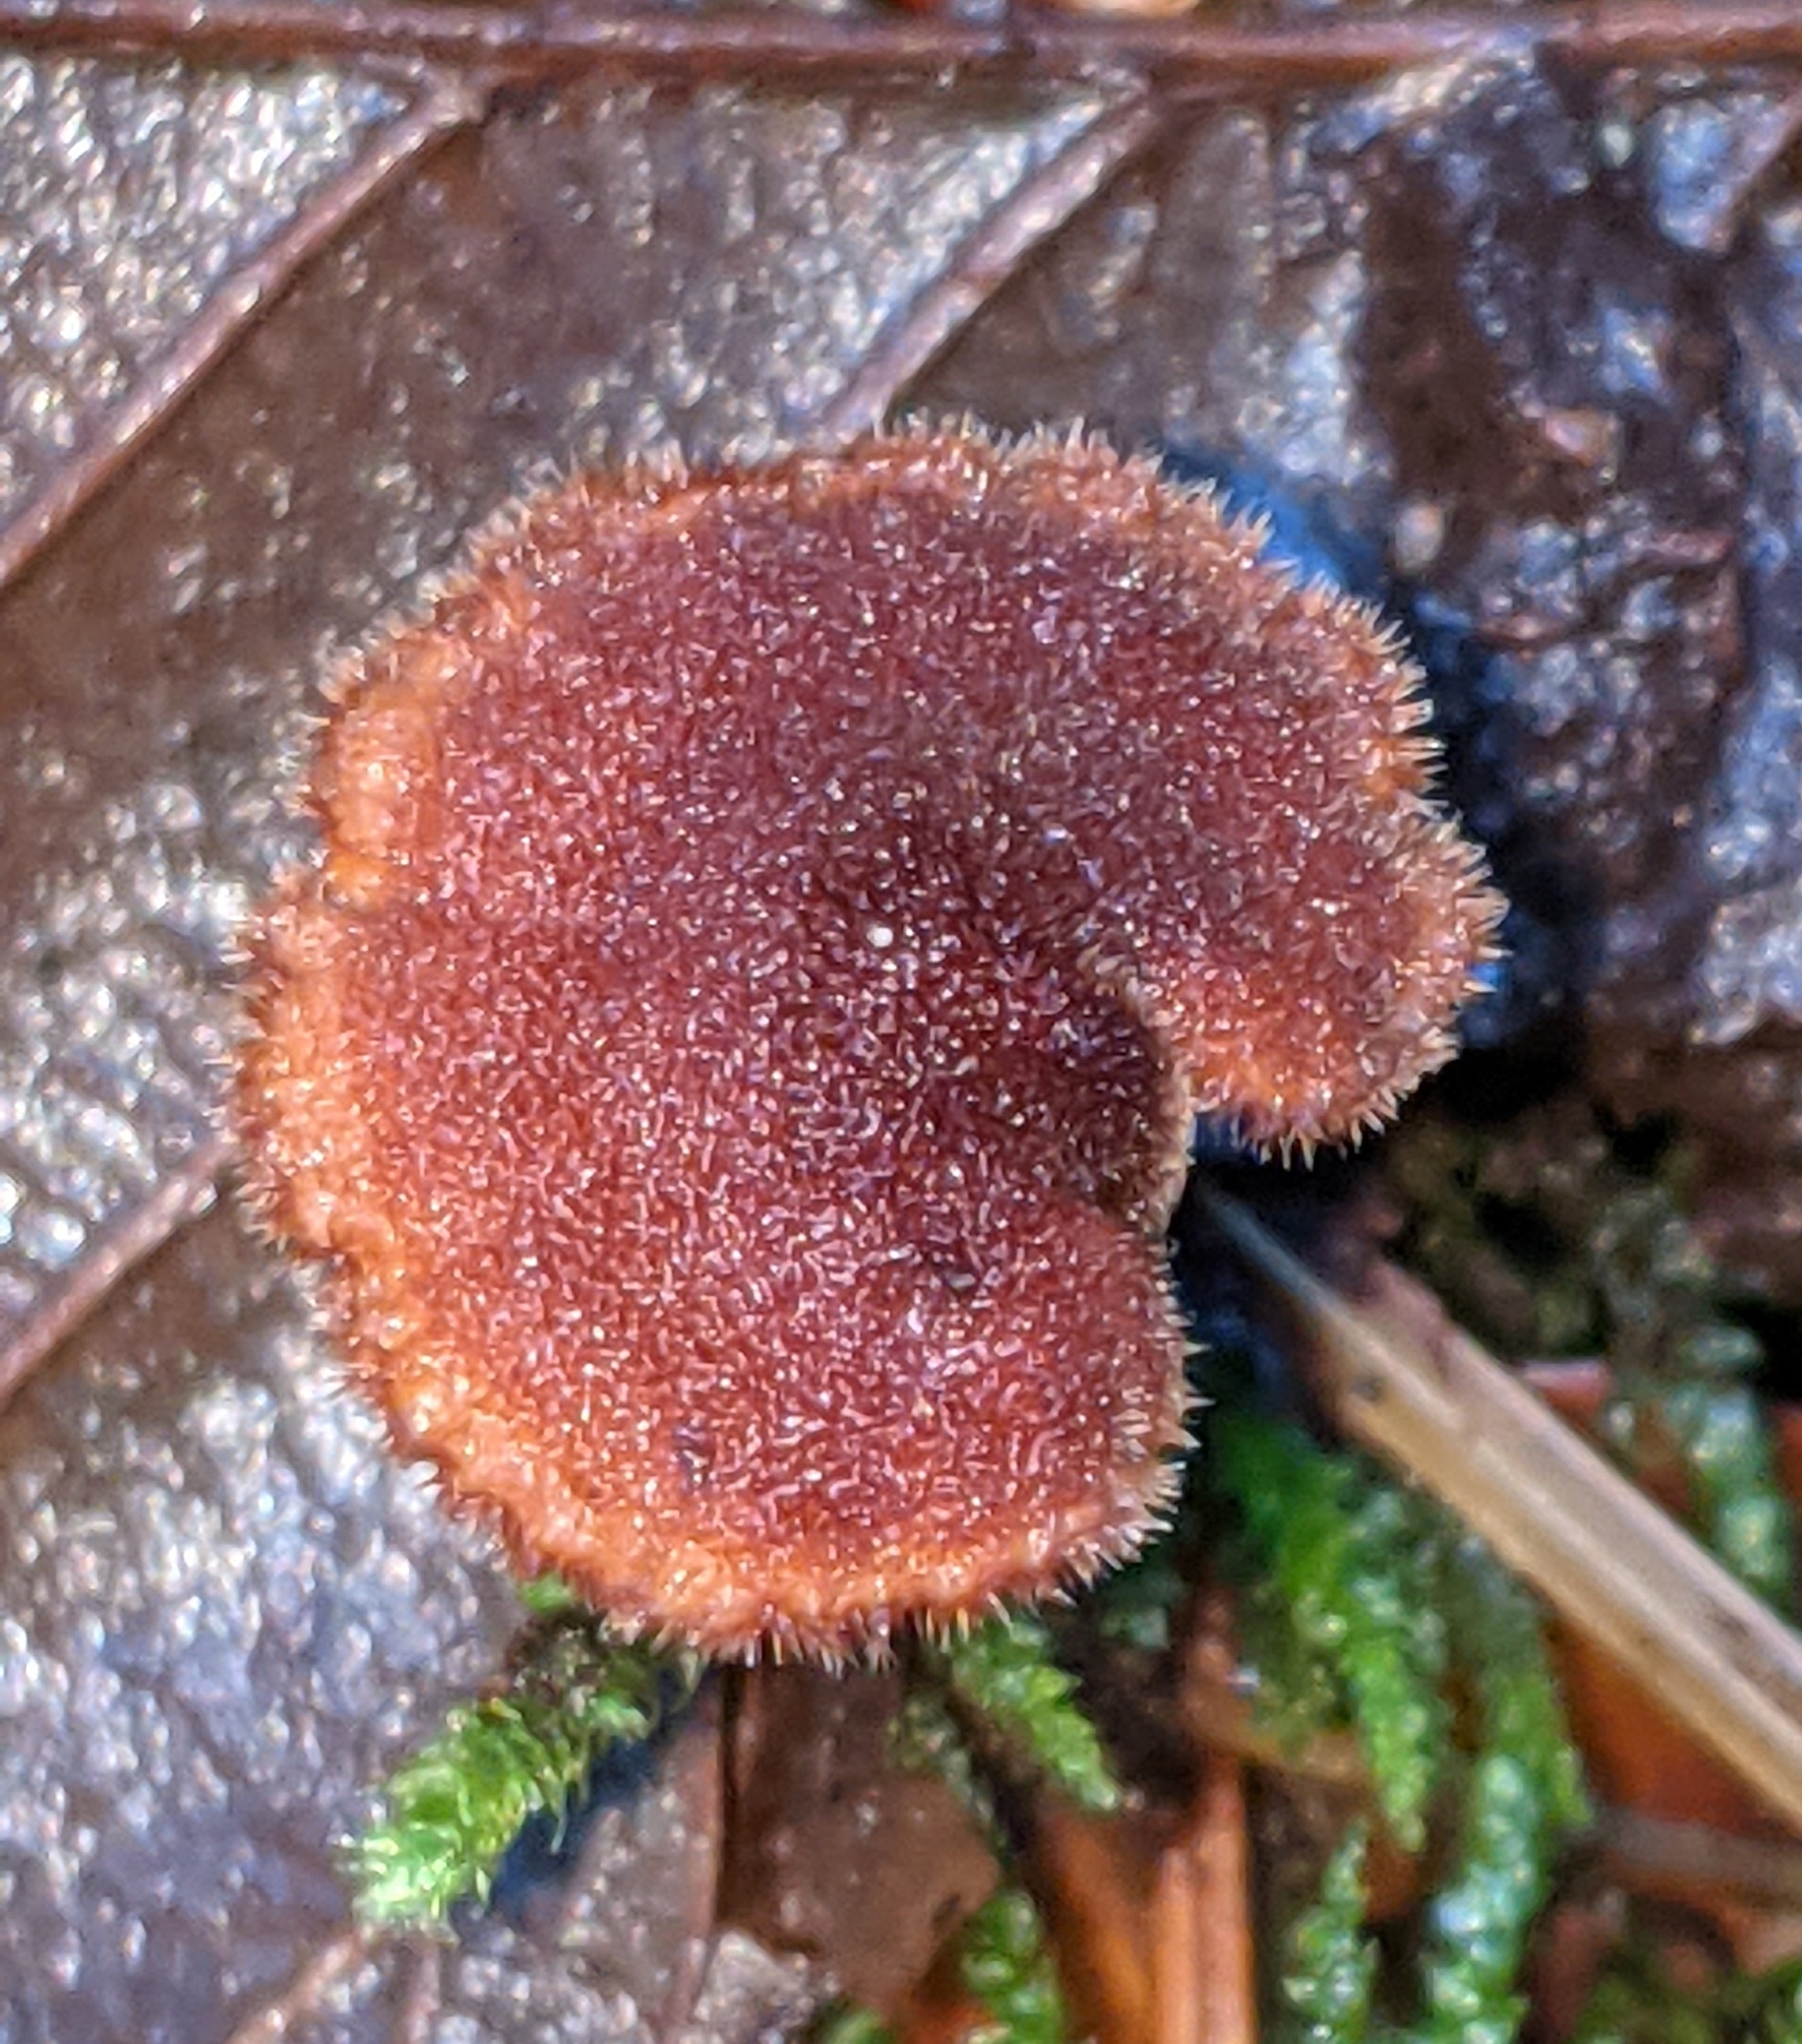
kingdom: Fungi
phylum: Basidiomycota
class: Agaricomycetes
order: Russulales
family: Auriscalpiaceae
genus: Auriscalpium
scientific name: Auriscalpium vulgare
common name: Earpick fungus
